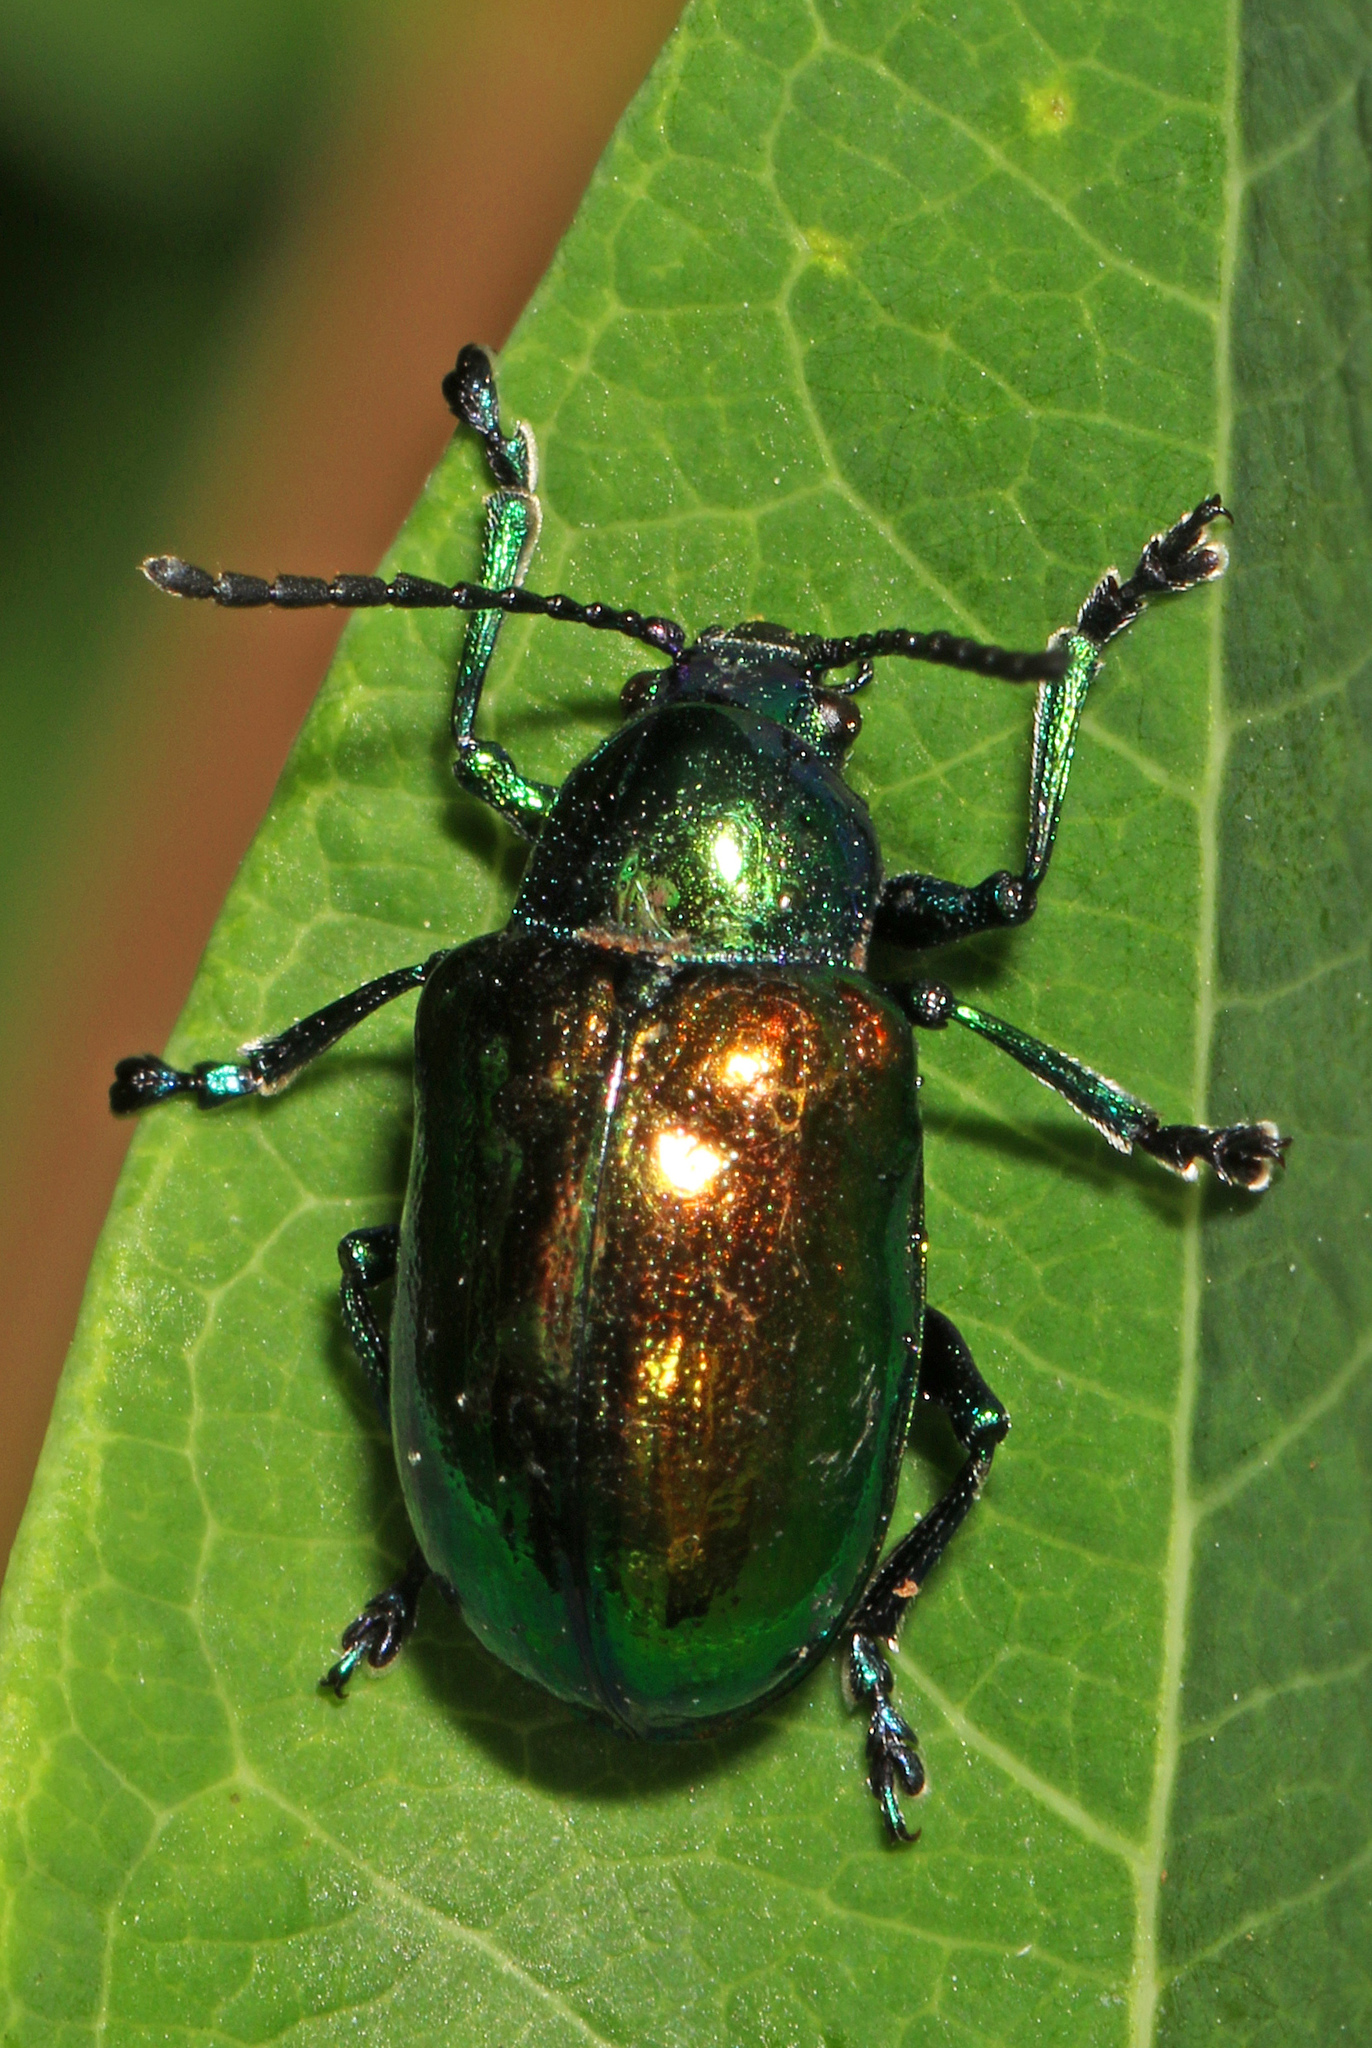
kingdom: Animalia
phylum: Arthropoda
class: Insecta
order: Coleoptera
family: Chrysomelidae
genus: Chrysochus
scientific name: Chrysochus auratus
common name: Dogbane leaf beetle
